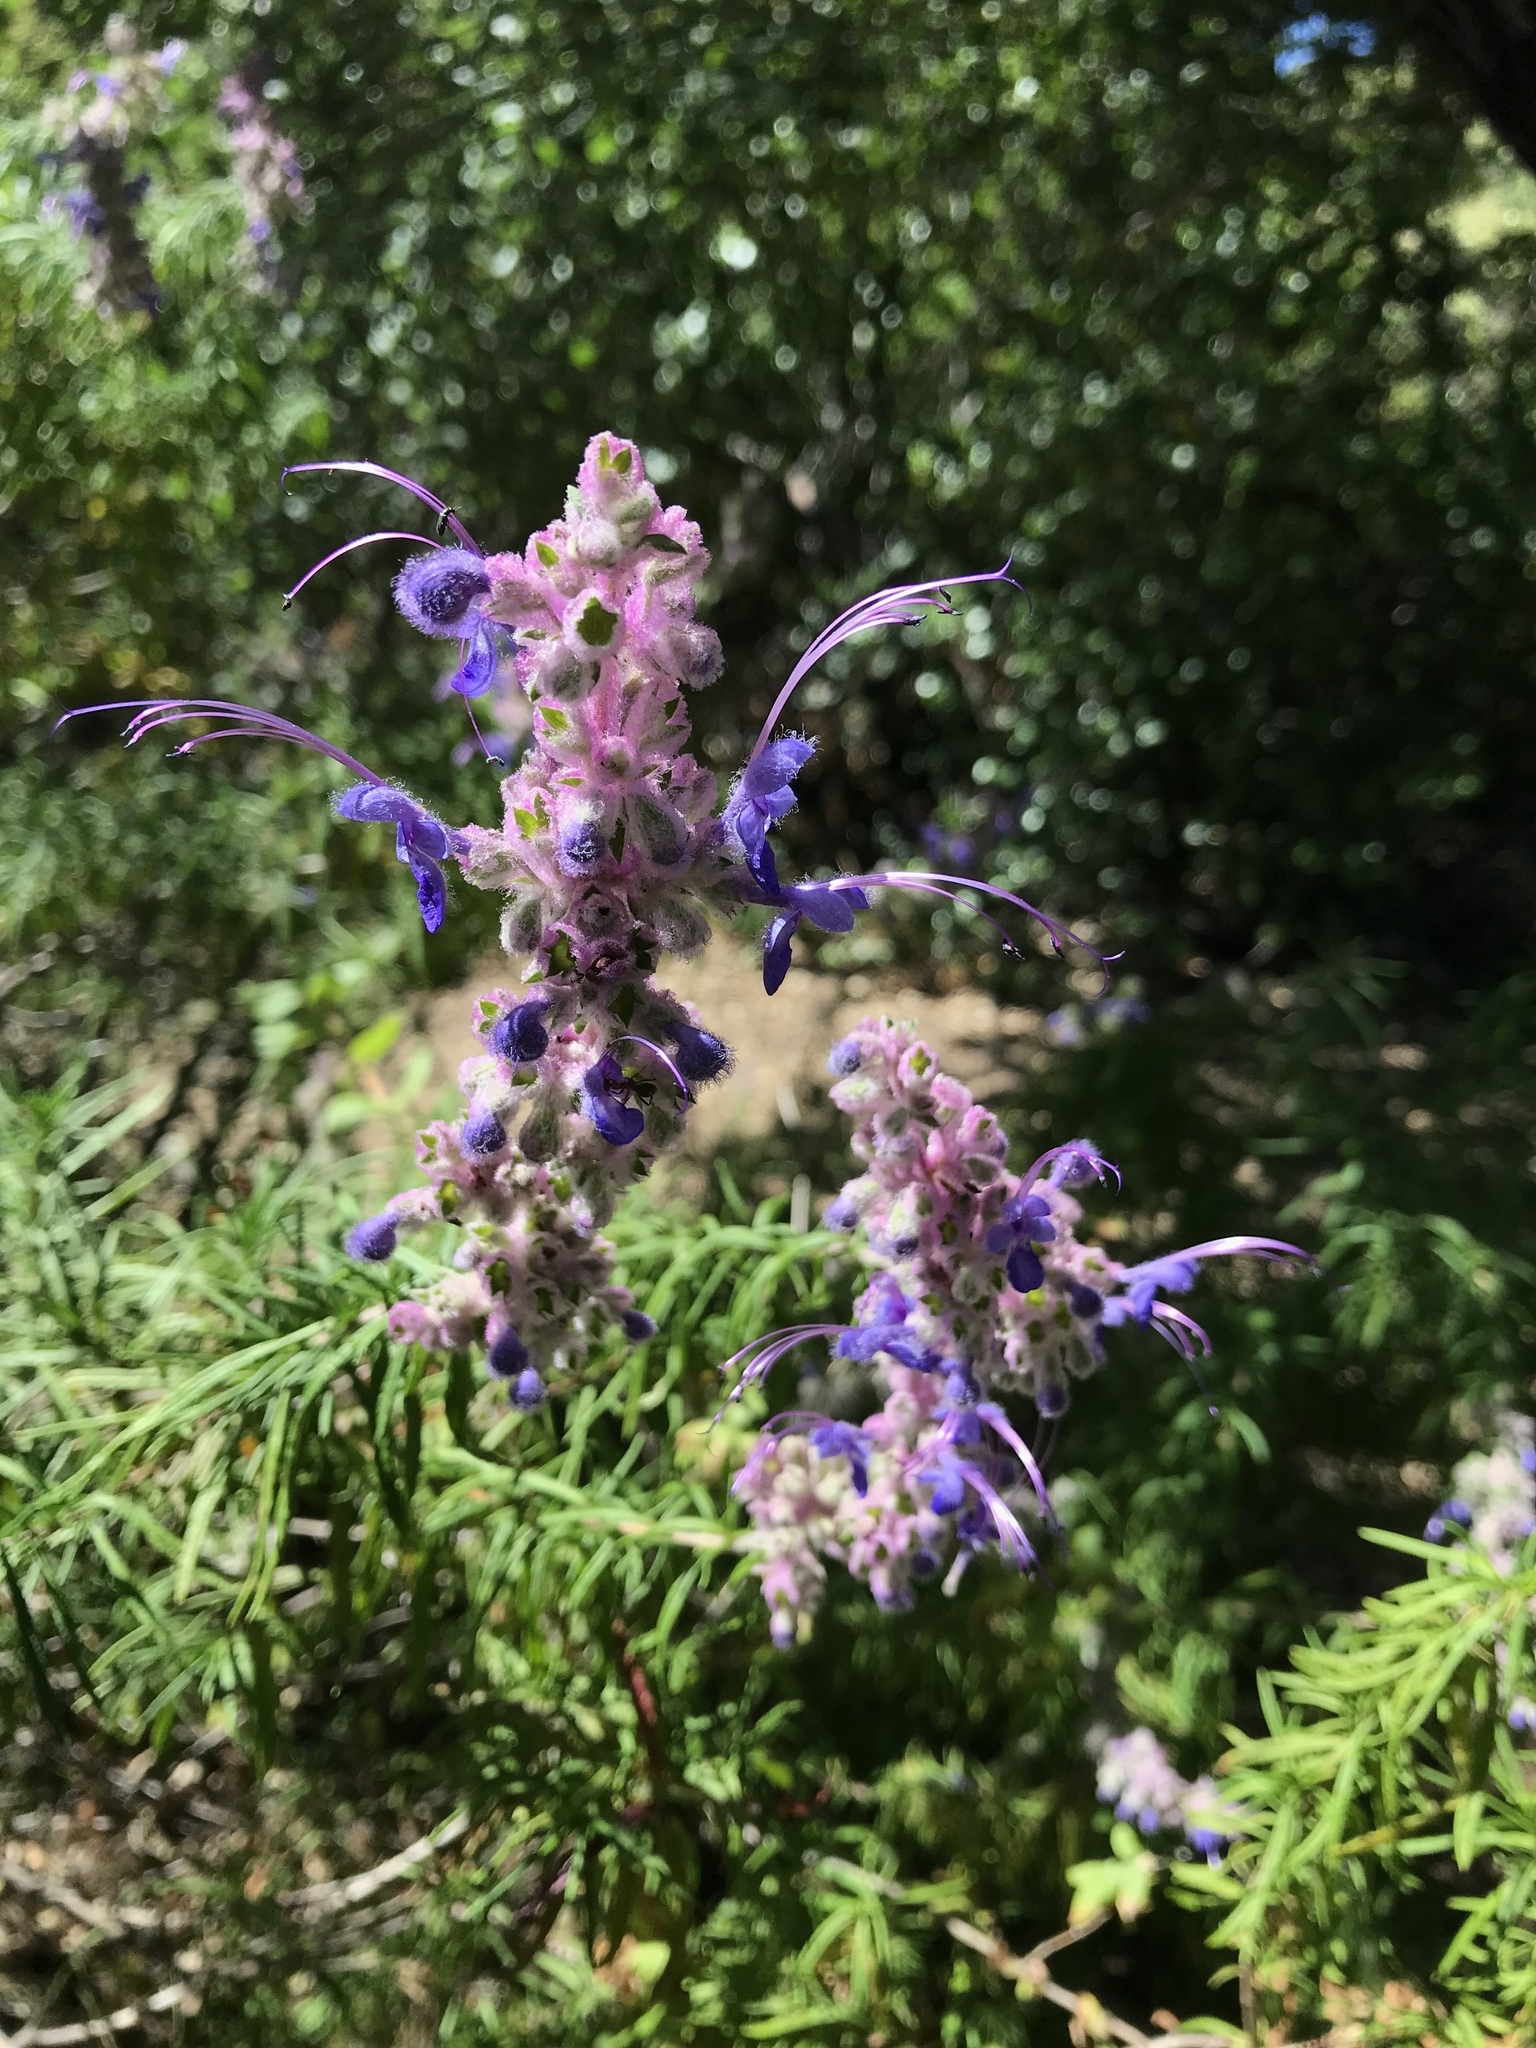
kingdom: Plantae
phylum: Tracheophyta
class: Magnoliopsida
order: Lamiales
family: Lamiaceae
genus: Trichostema
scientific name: Trichostema lanatum
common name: Woolly bluecurls
